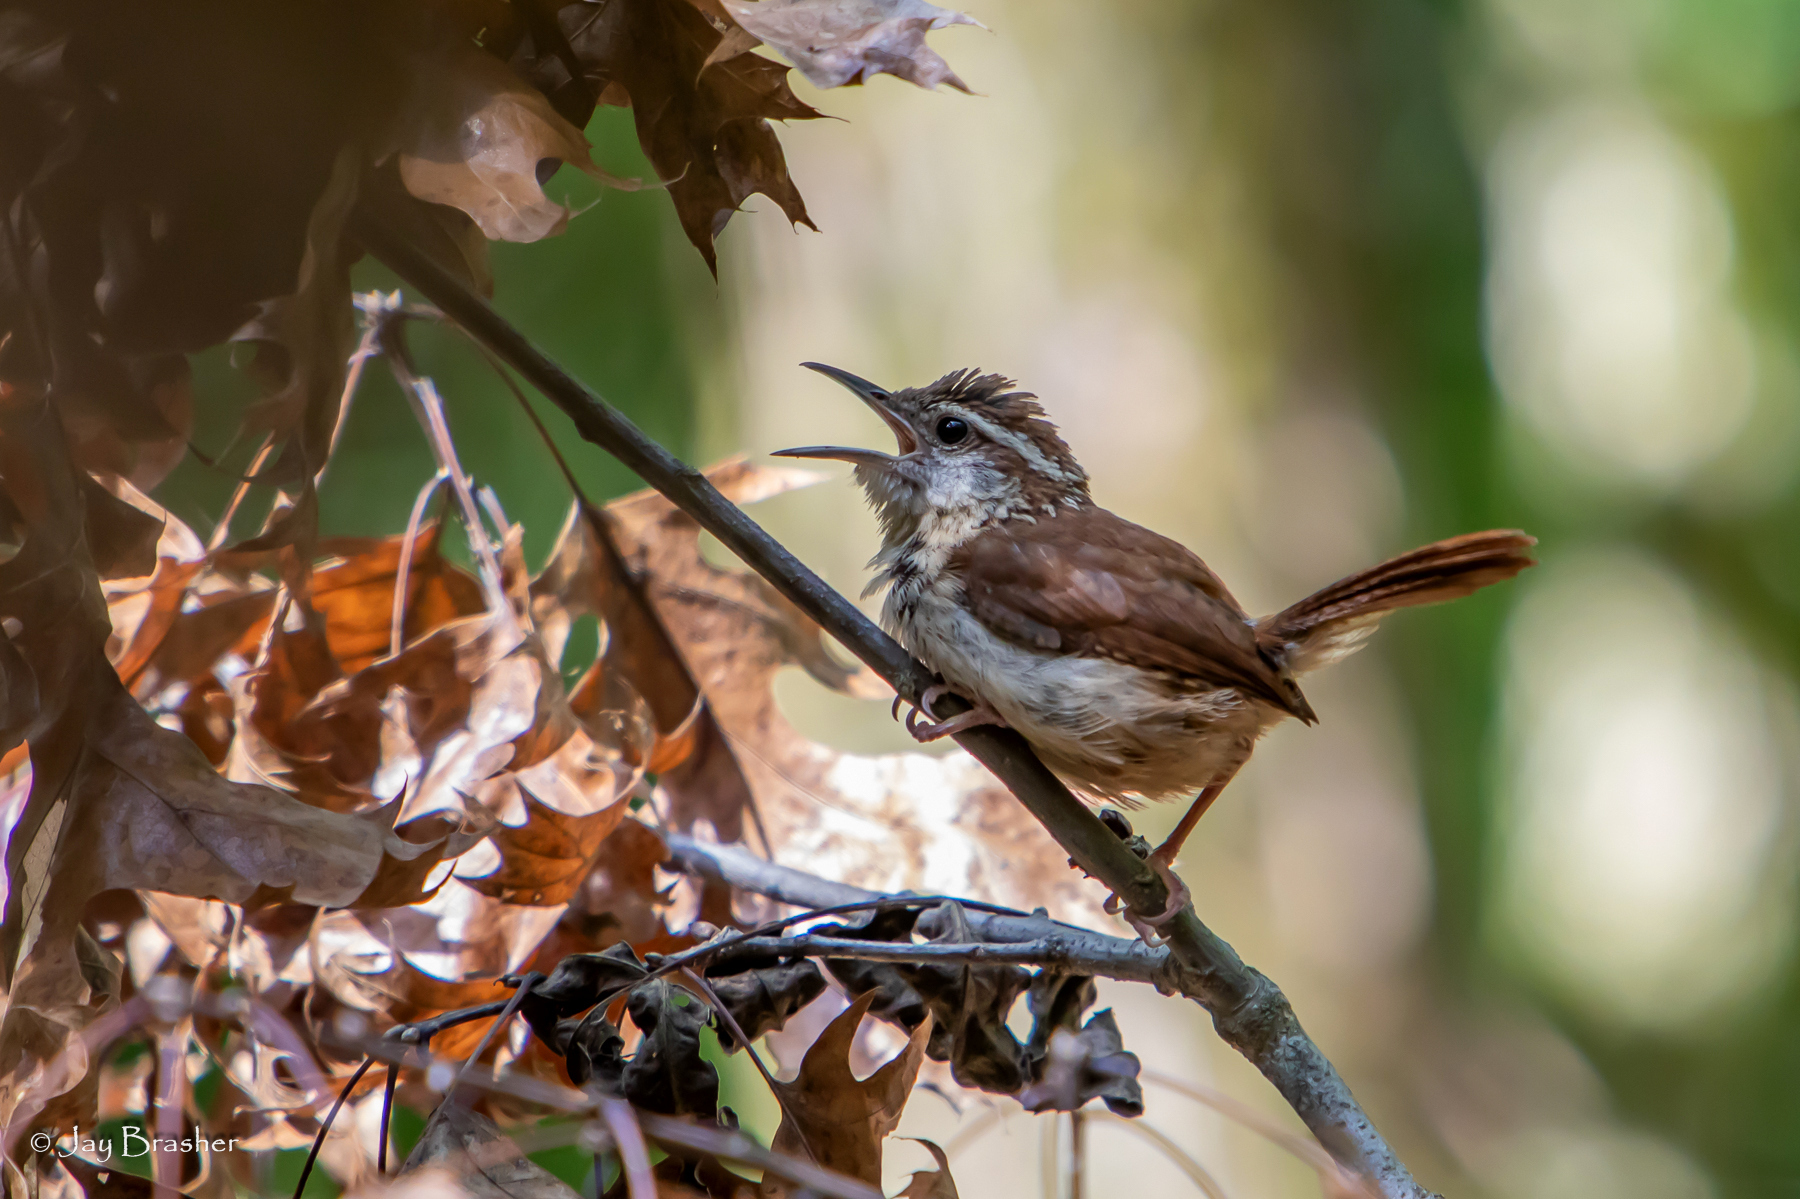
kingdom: Animalia
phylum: Chordata
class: Aves
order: Passeriformes
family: Troglodytidae
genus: Thryothorus
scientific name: Thryothorus ludovicianus
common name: Carolina wren
